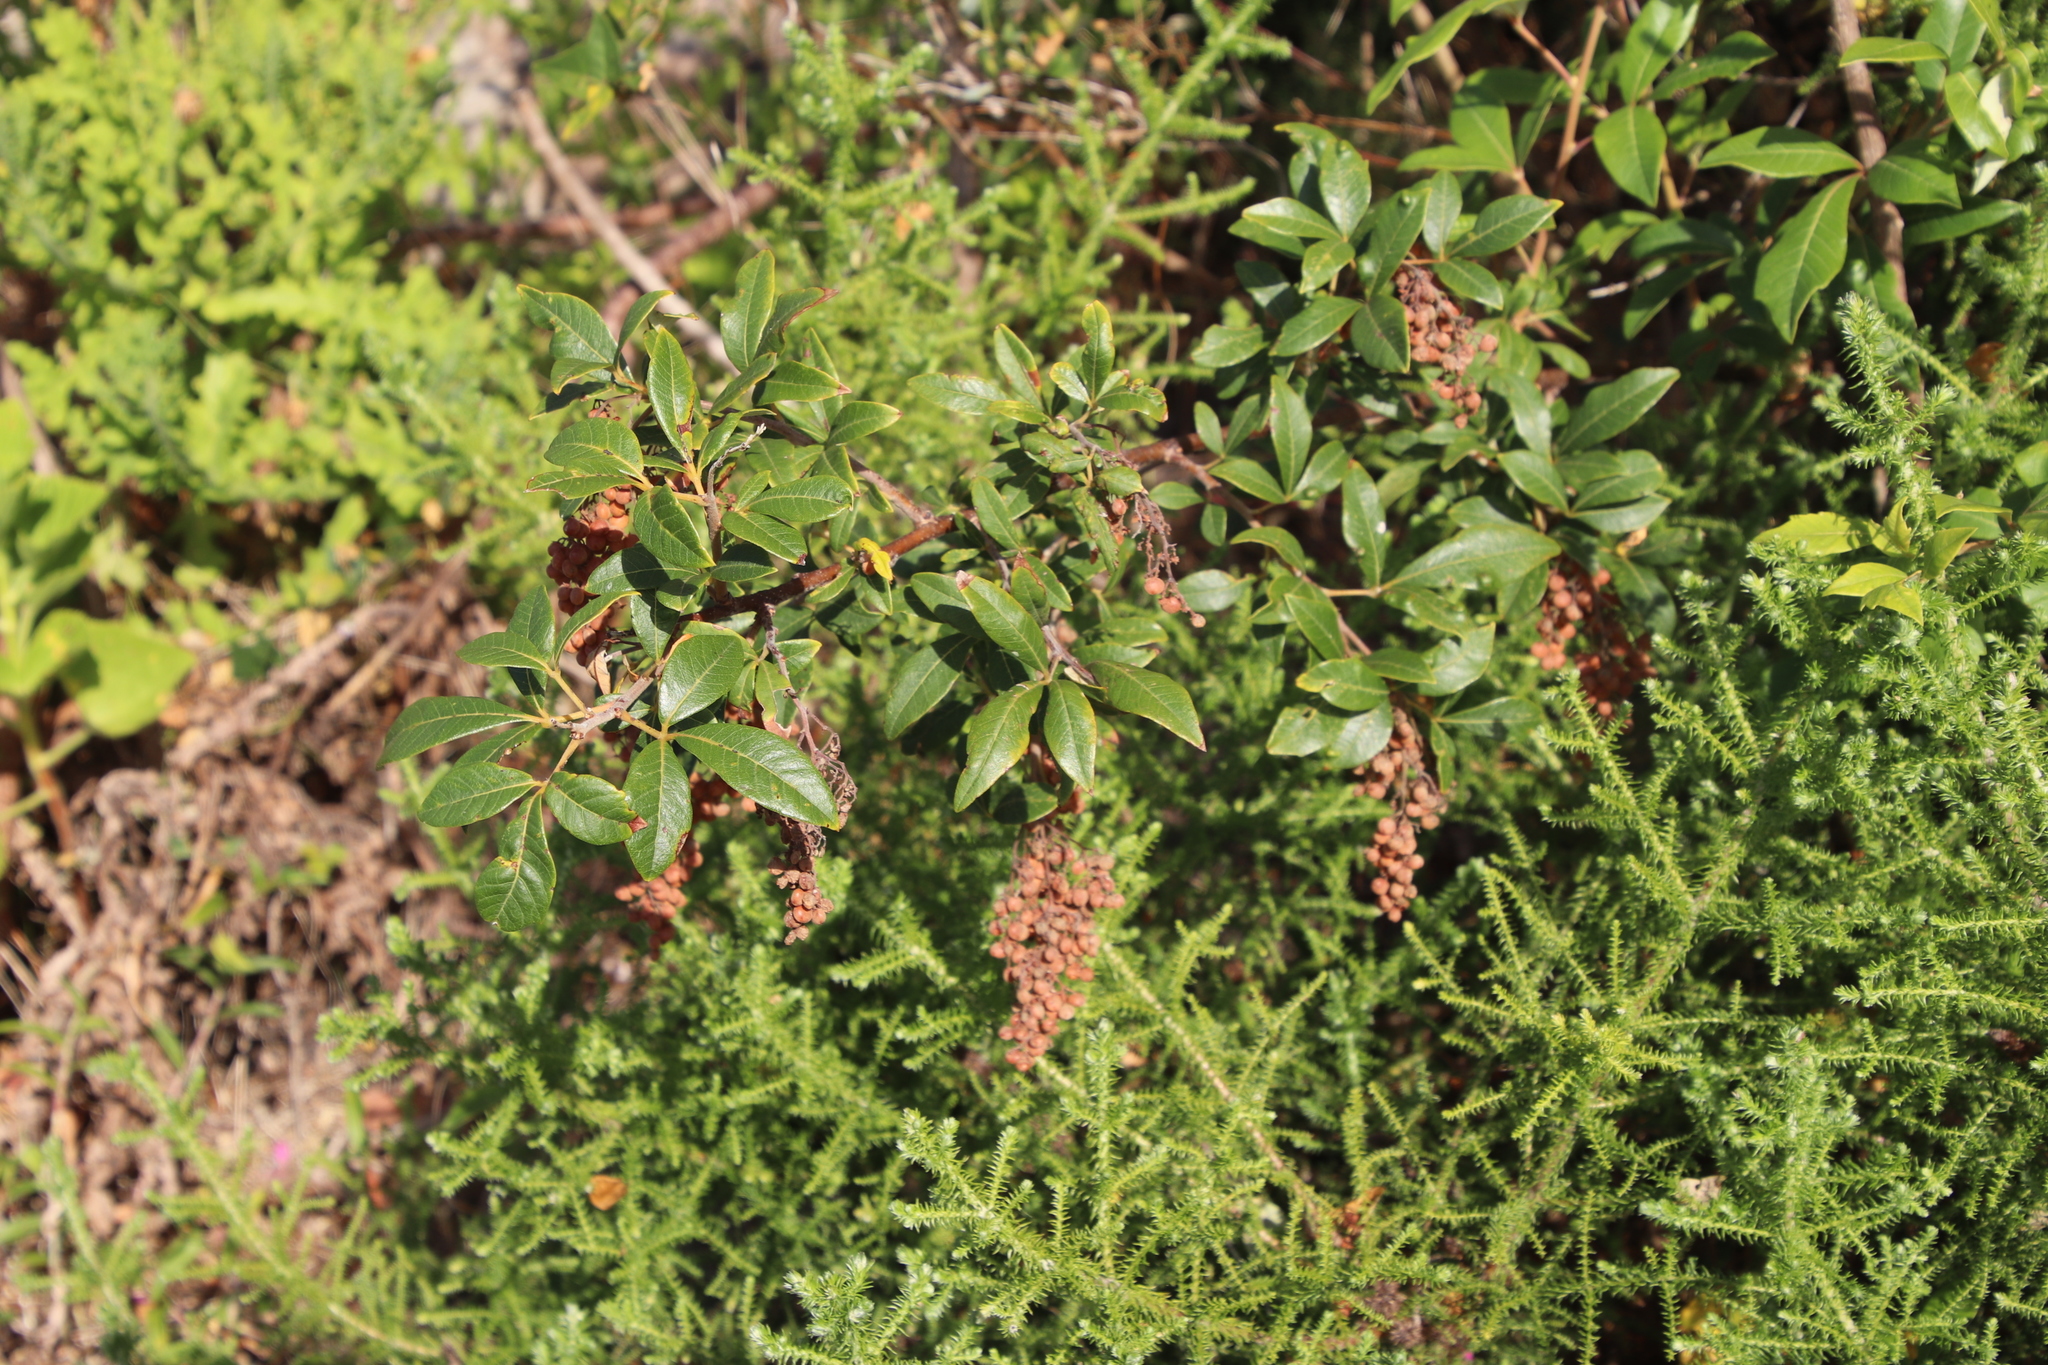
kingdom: Plantae
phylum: Tracheophyta
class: Magnoliopsida
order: Sapindales
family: Anacardiaceae
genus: Searsia
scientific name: Searsia tomentosa
